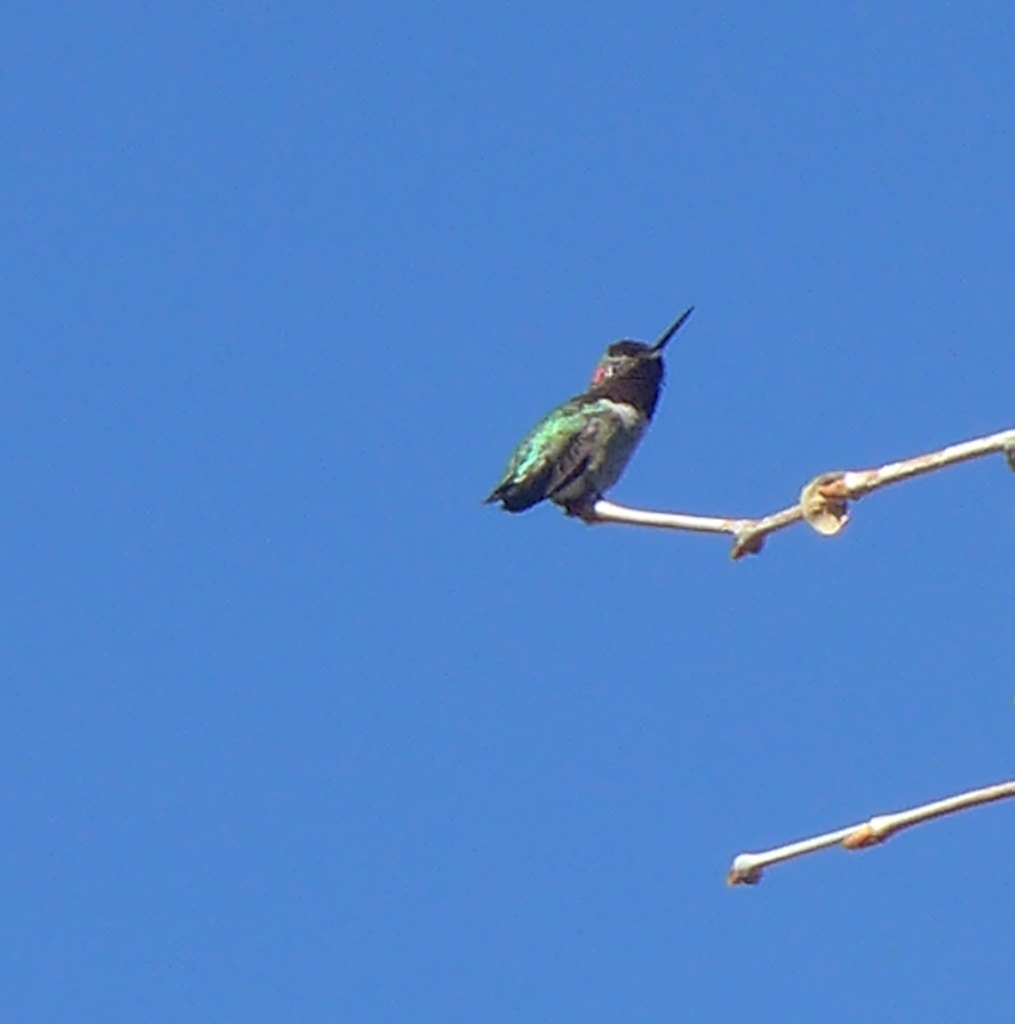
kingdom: Animalia
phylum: Chordata
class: Aves
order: Apodiformes
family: Trochilidae
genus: Calypte
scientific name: Calypte anna
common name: Anna's hummingbird
